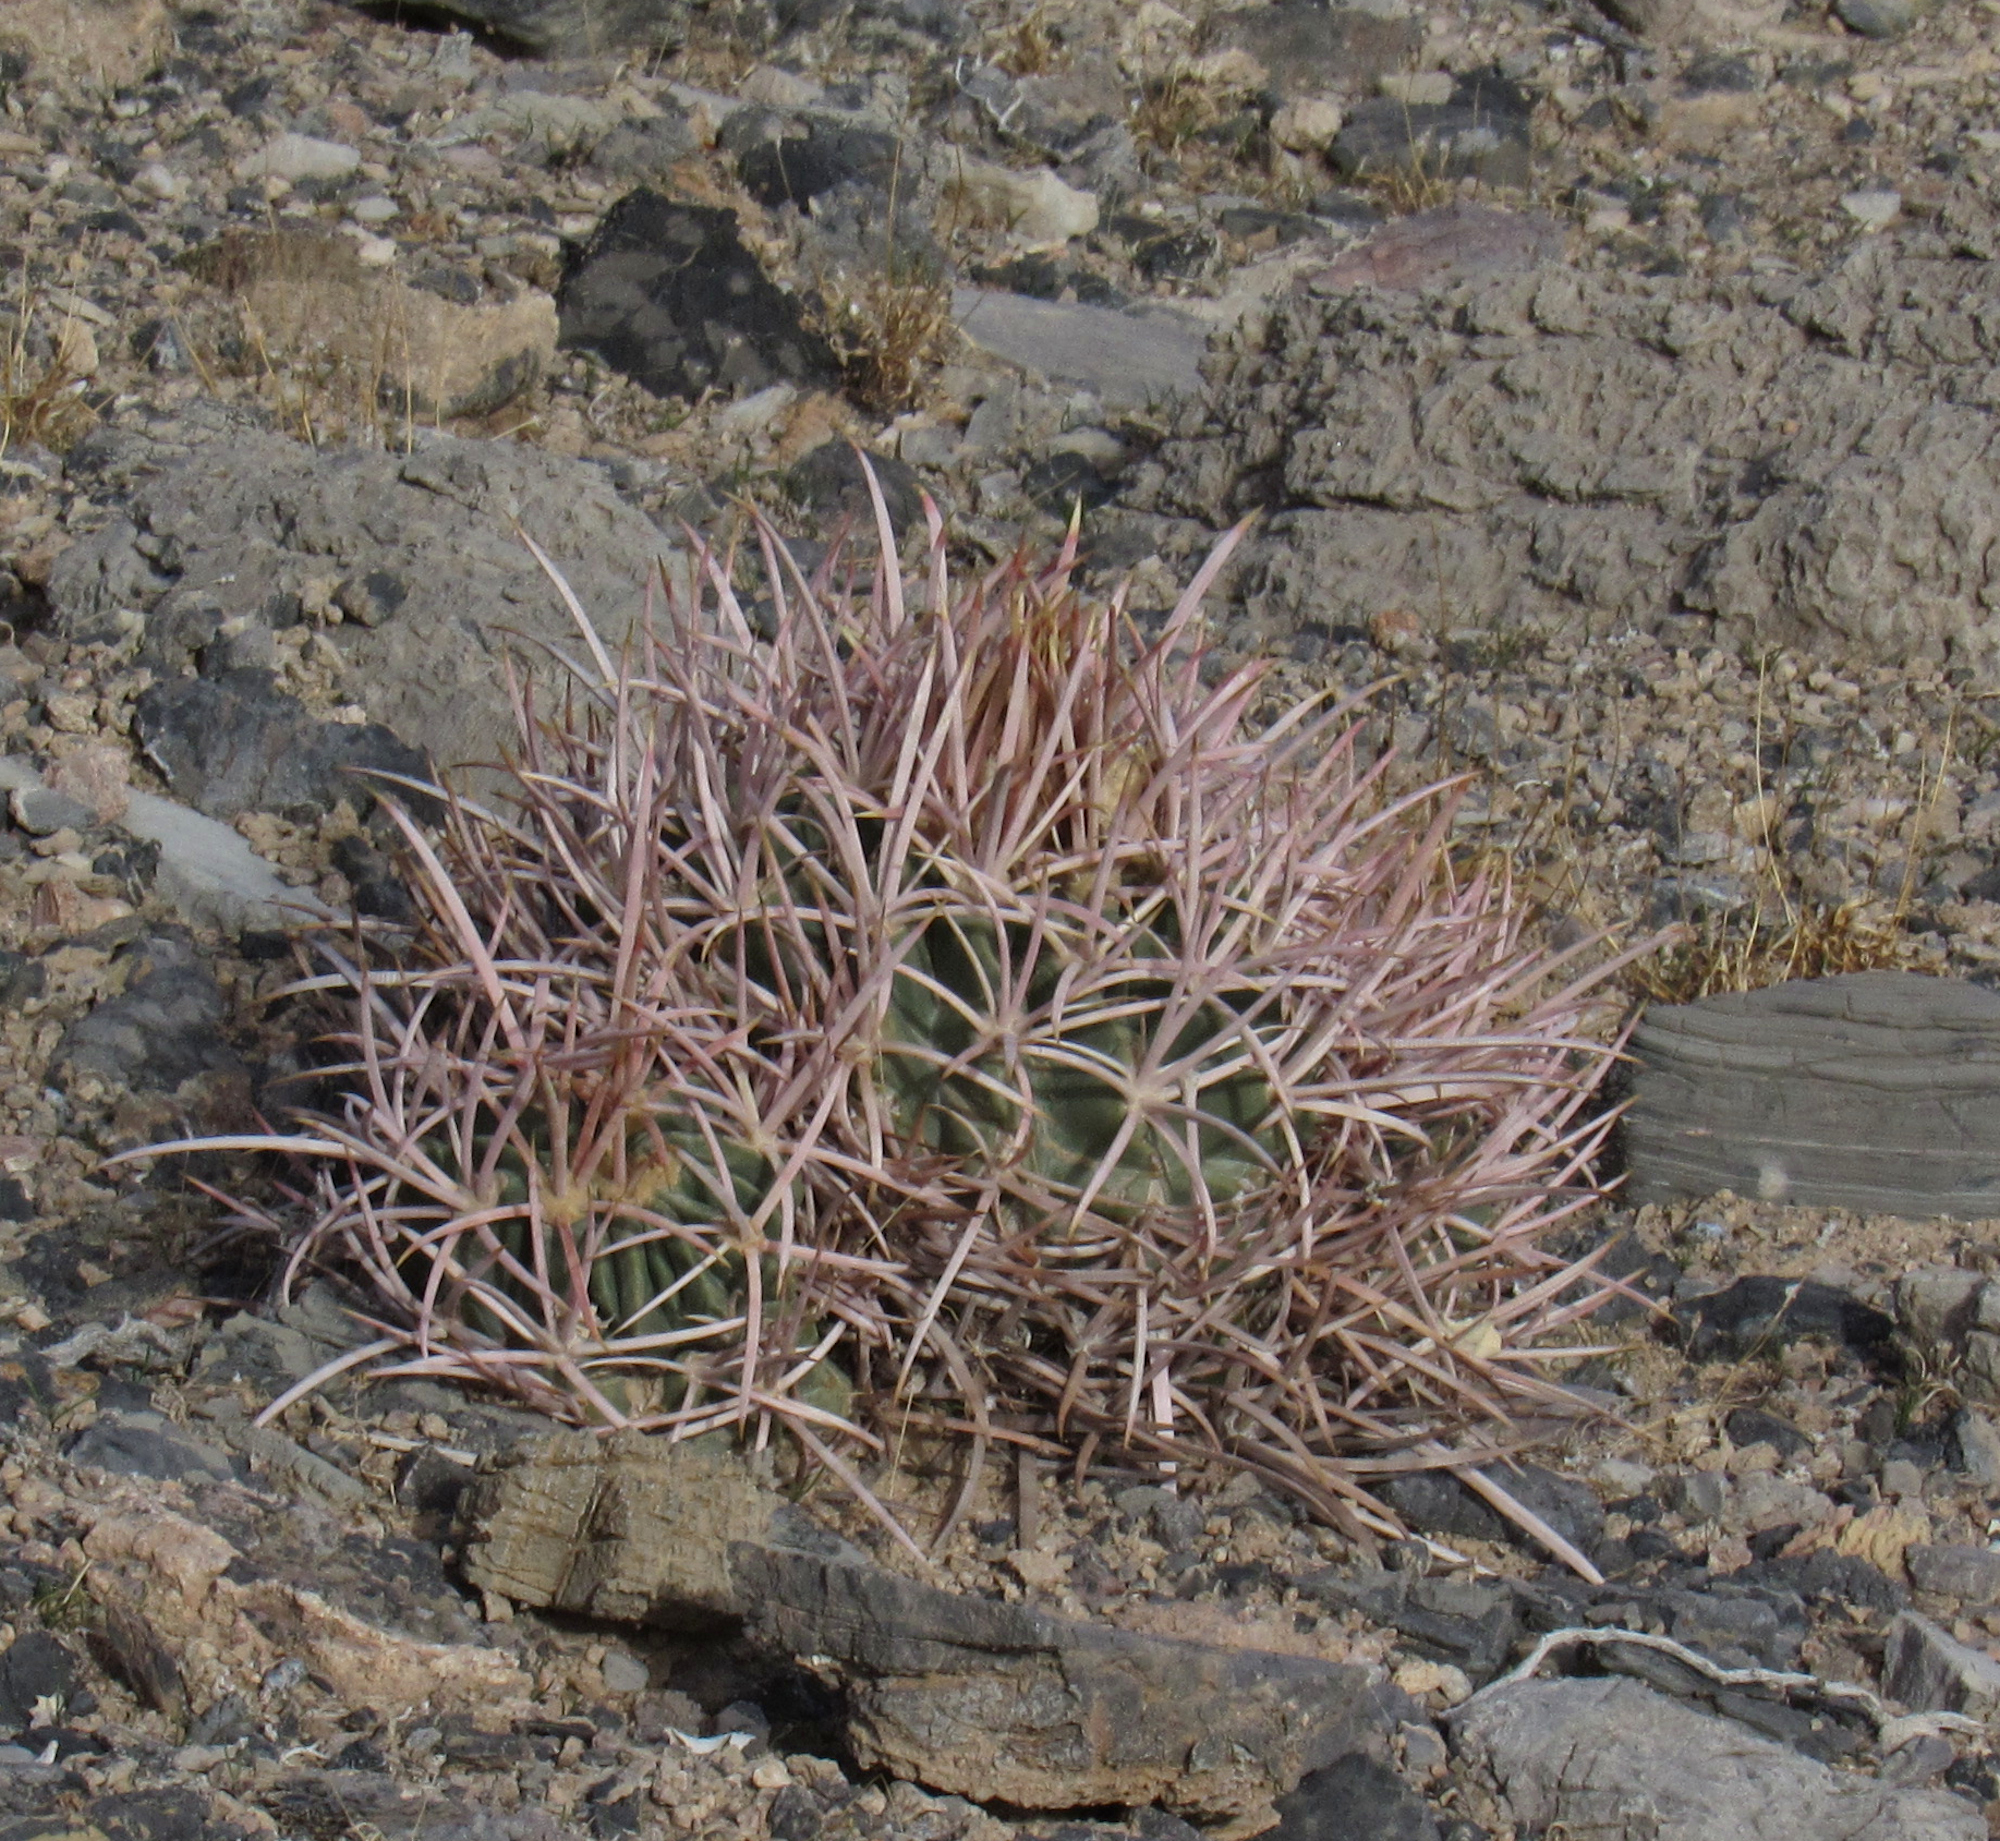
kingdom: Plantae
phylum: Tracheophyta
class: Magnoliopsida
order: Caryophyllales
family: Cactaceae
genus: Echinocactus
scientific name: Echinocactus polycephalus
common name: Cottontop cactus
